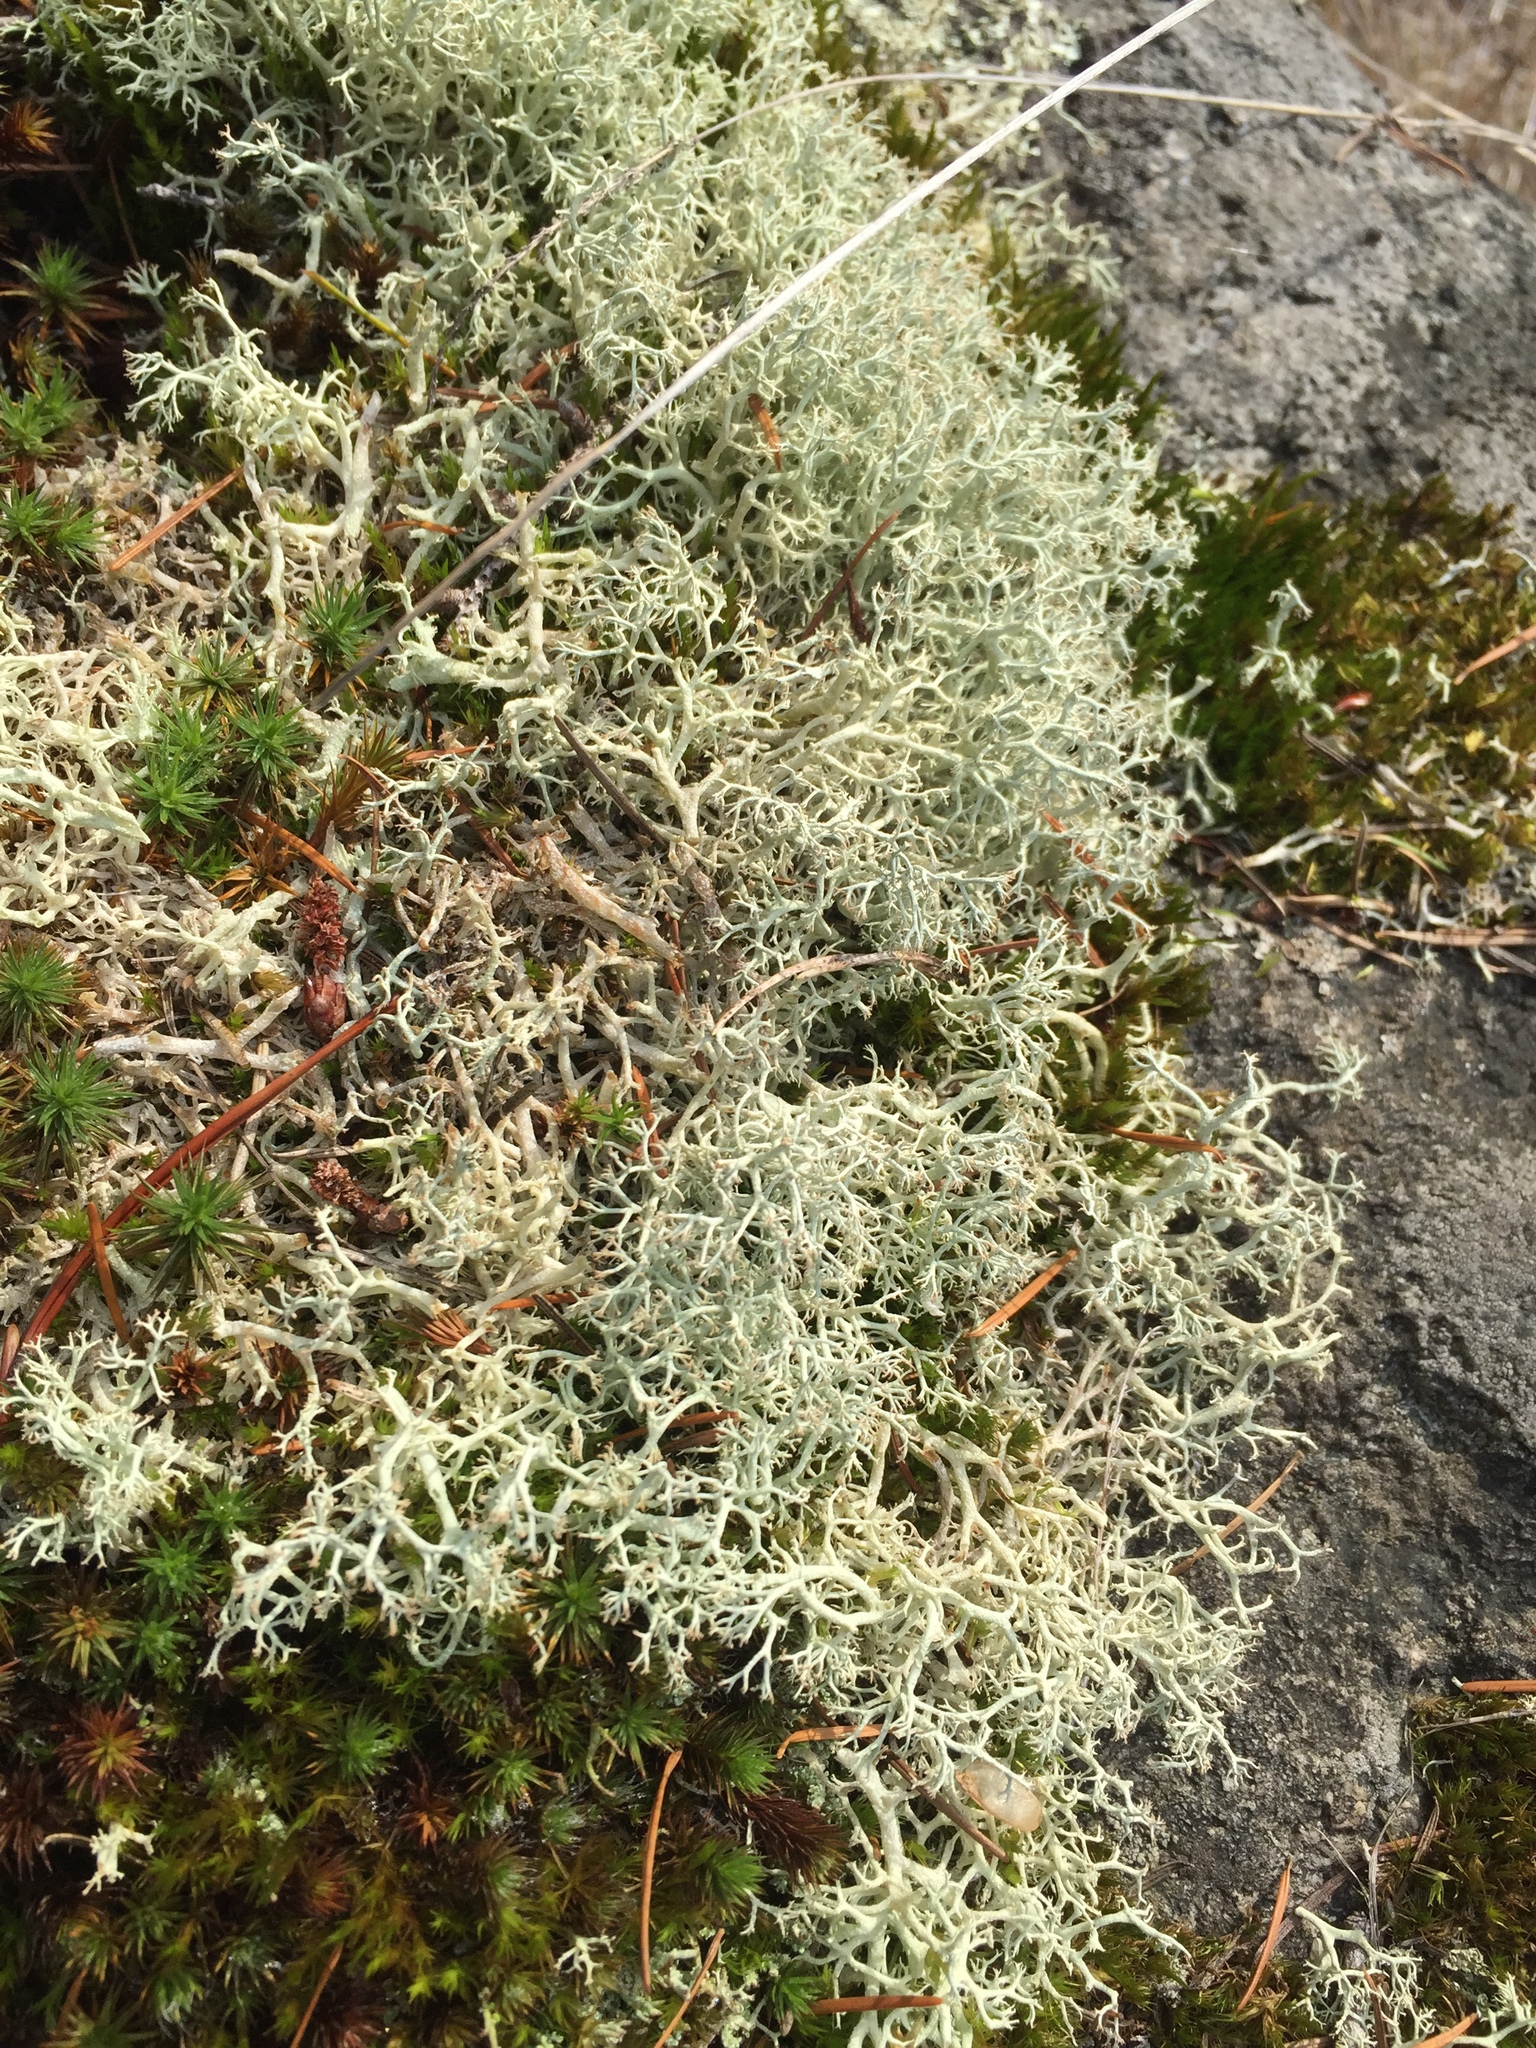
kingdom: Fungi
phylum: Ascomycota
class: Lecanoromycetes
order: Lecanorales
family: Cladoniaceae
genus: Cladonia
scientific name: Cladonia portentosa
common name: Reindeer lichen
